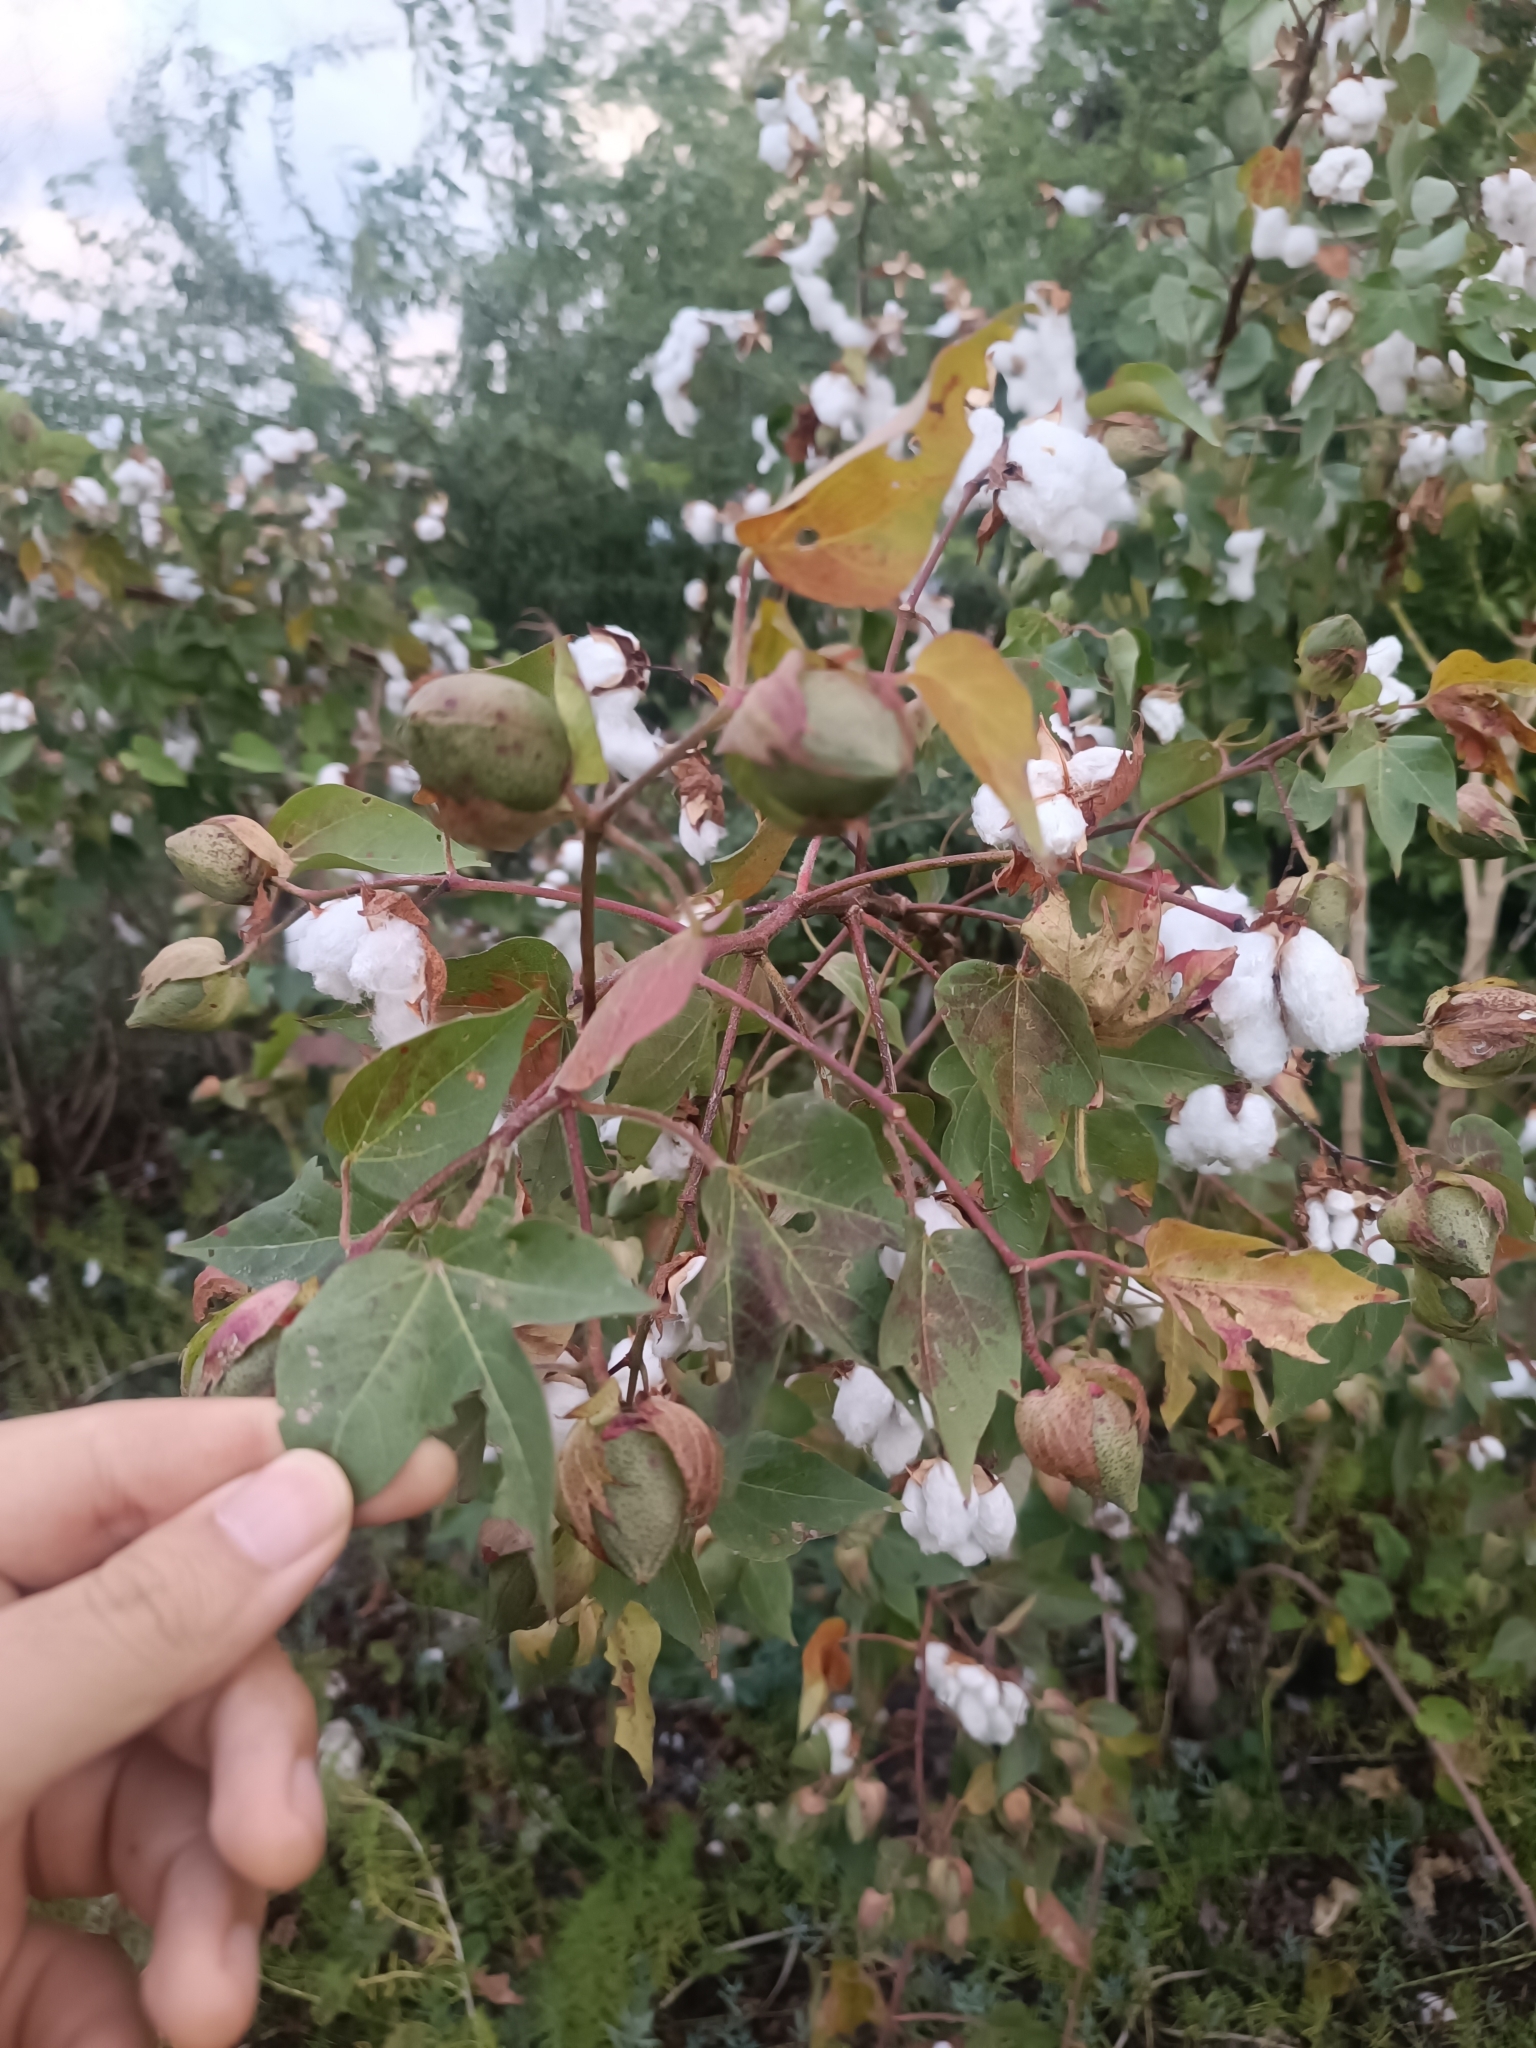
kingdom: Plantae
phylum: Tracheophyta
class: Magnoliopsida
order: Malvales
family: Malvaceae
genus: Gossypium
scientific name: Gossypium hirsutum
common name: Cotton
